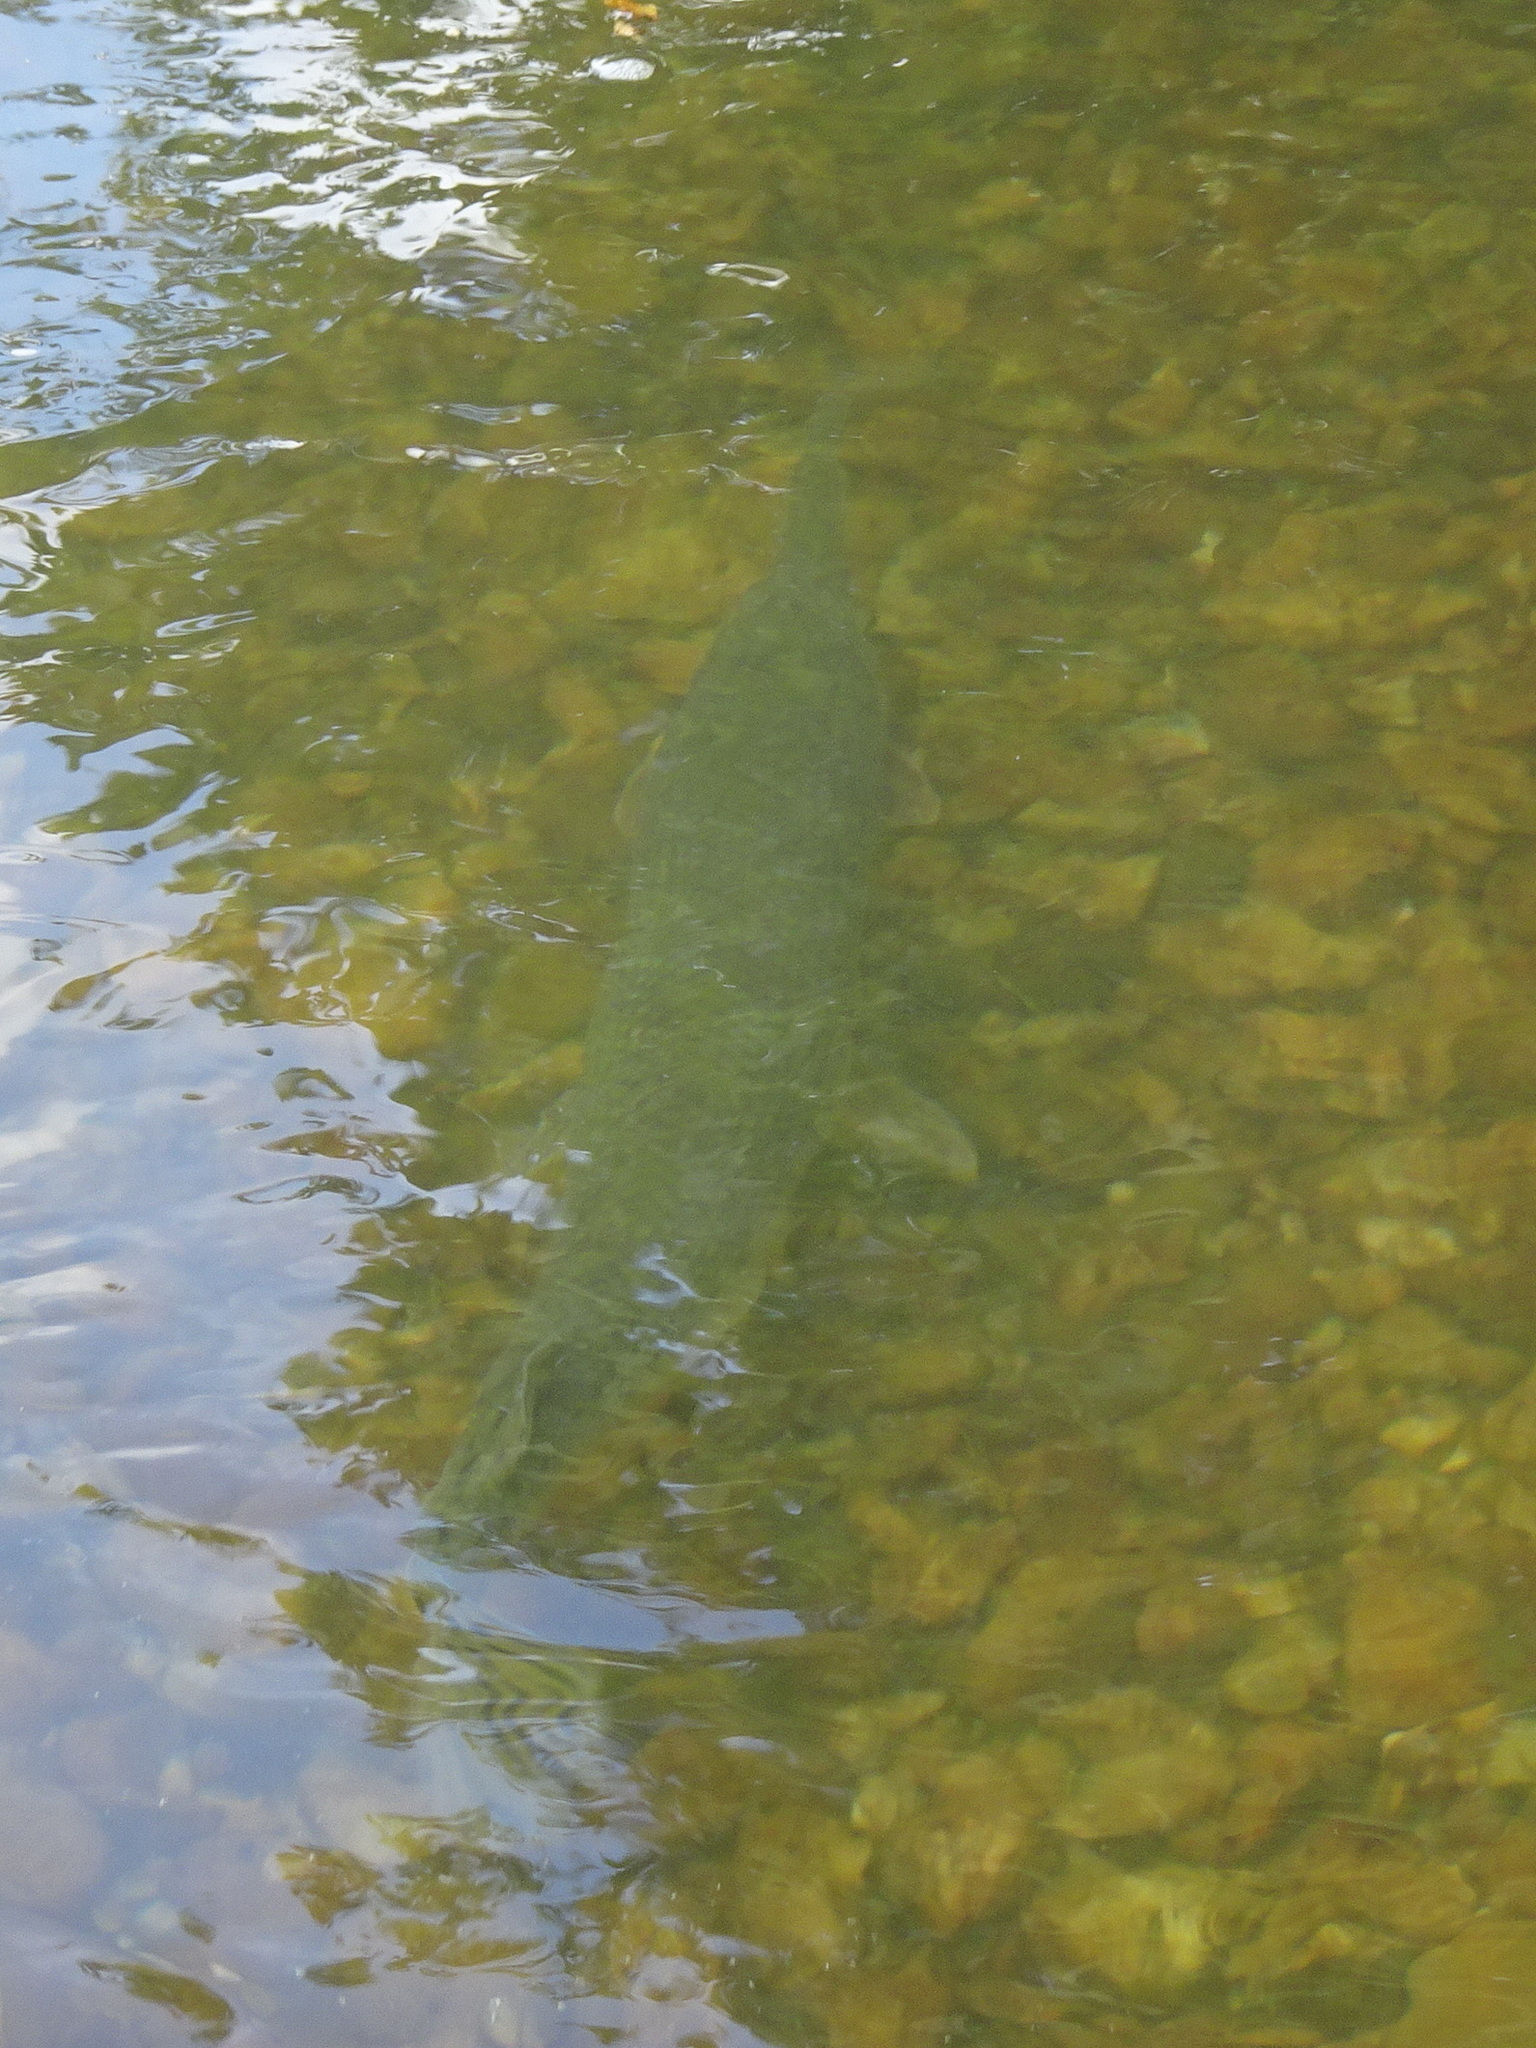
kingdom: Animalia
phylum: Chordata
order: Lepisosteiformes
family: Lepisosteidae
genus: Lepisosteus
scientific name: Lepisosteus osseus
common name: Longnose gar
